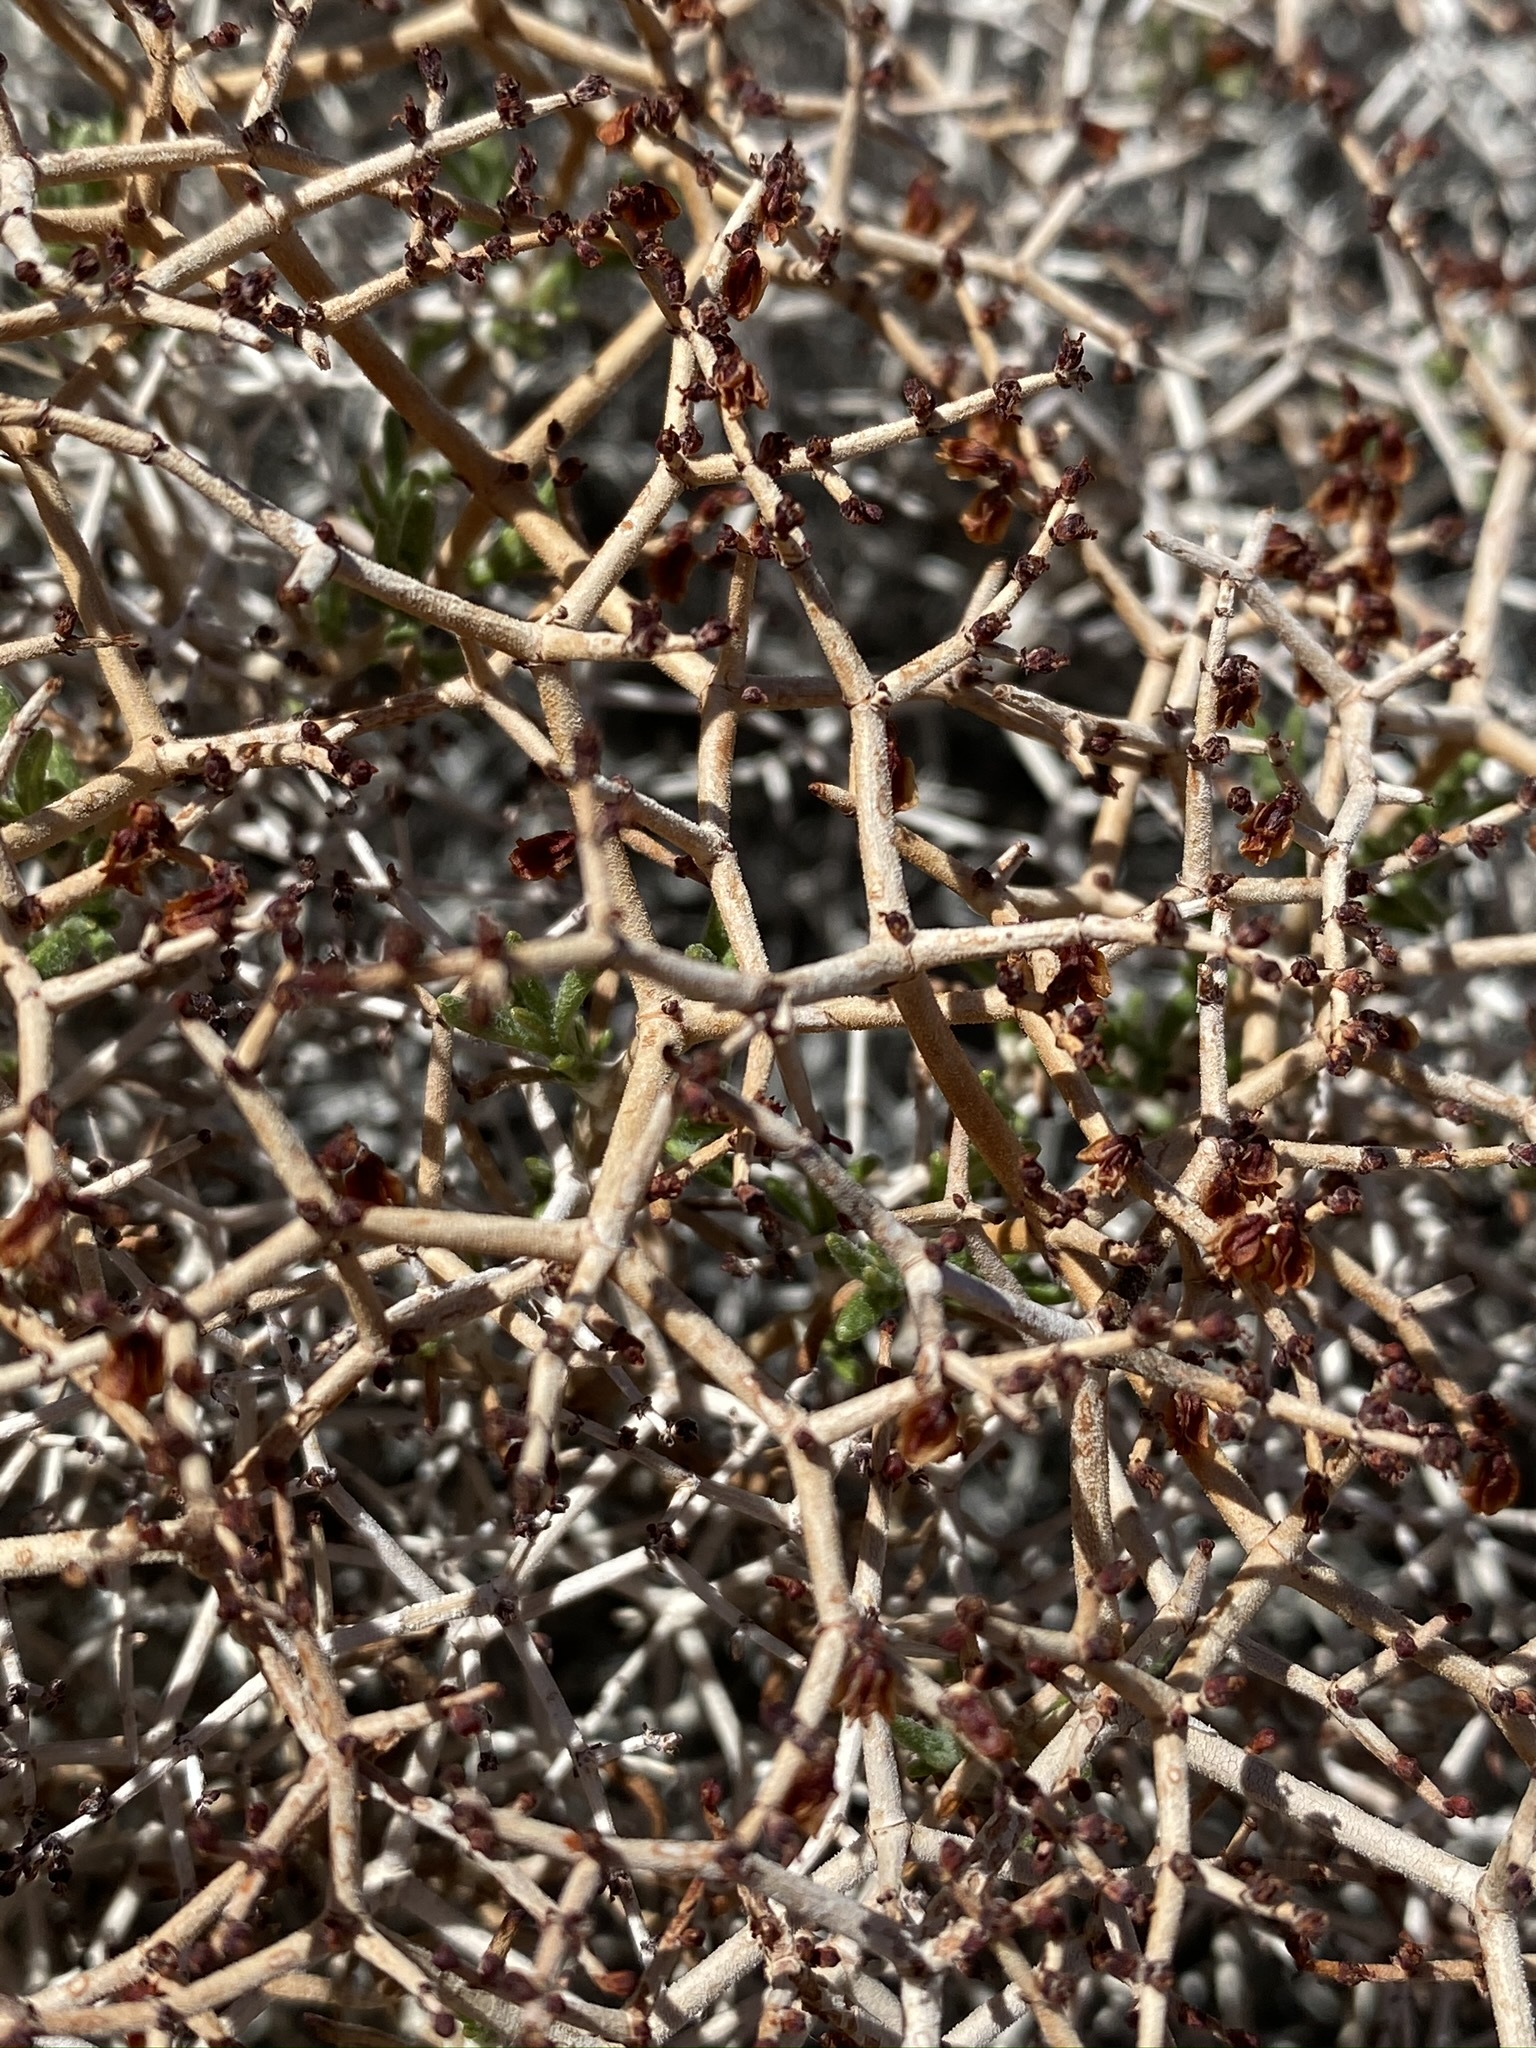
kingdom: Plantae
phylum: Tracheophyta
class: Magnoliopsida
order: Caryophyllales
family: Polygonaceae
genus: Eriogonum
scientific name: Eriogonum heermannii
